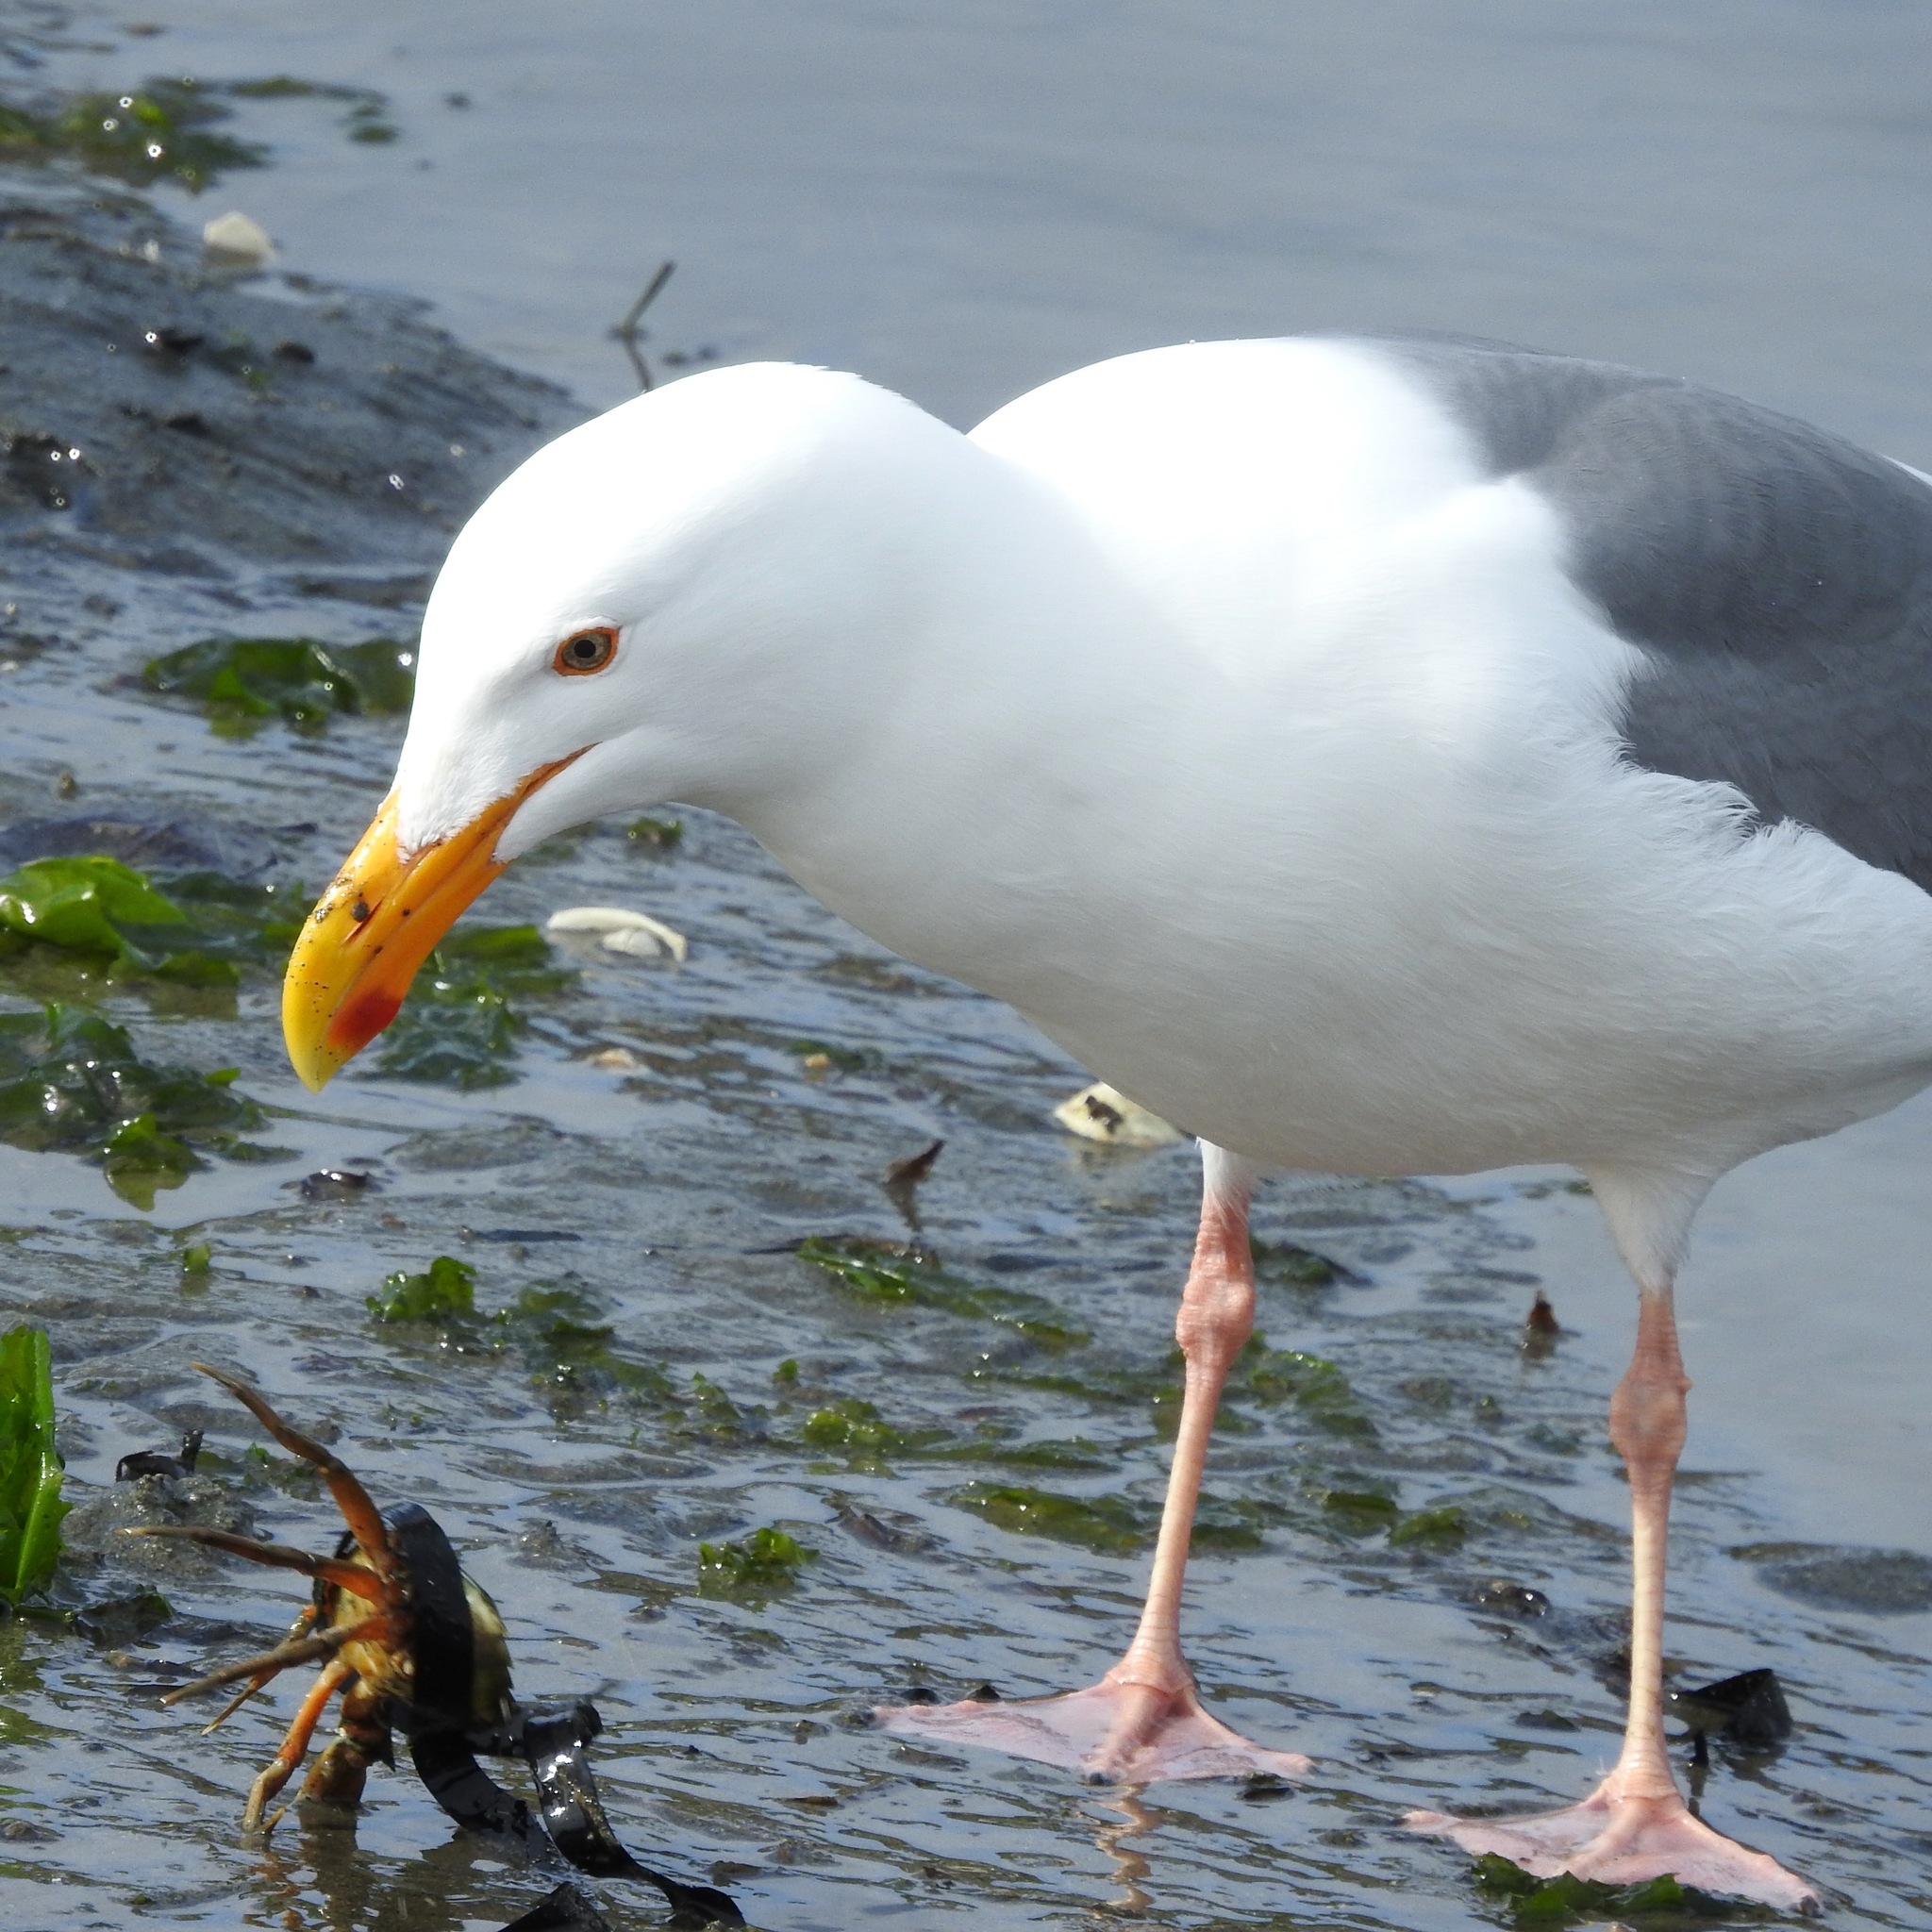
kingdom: Animalia
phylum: Chordata
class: Aves
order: Charadriiformes
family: Laridae
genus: Larus
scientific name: Larus occidentalis
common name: Western gull
